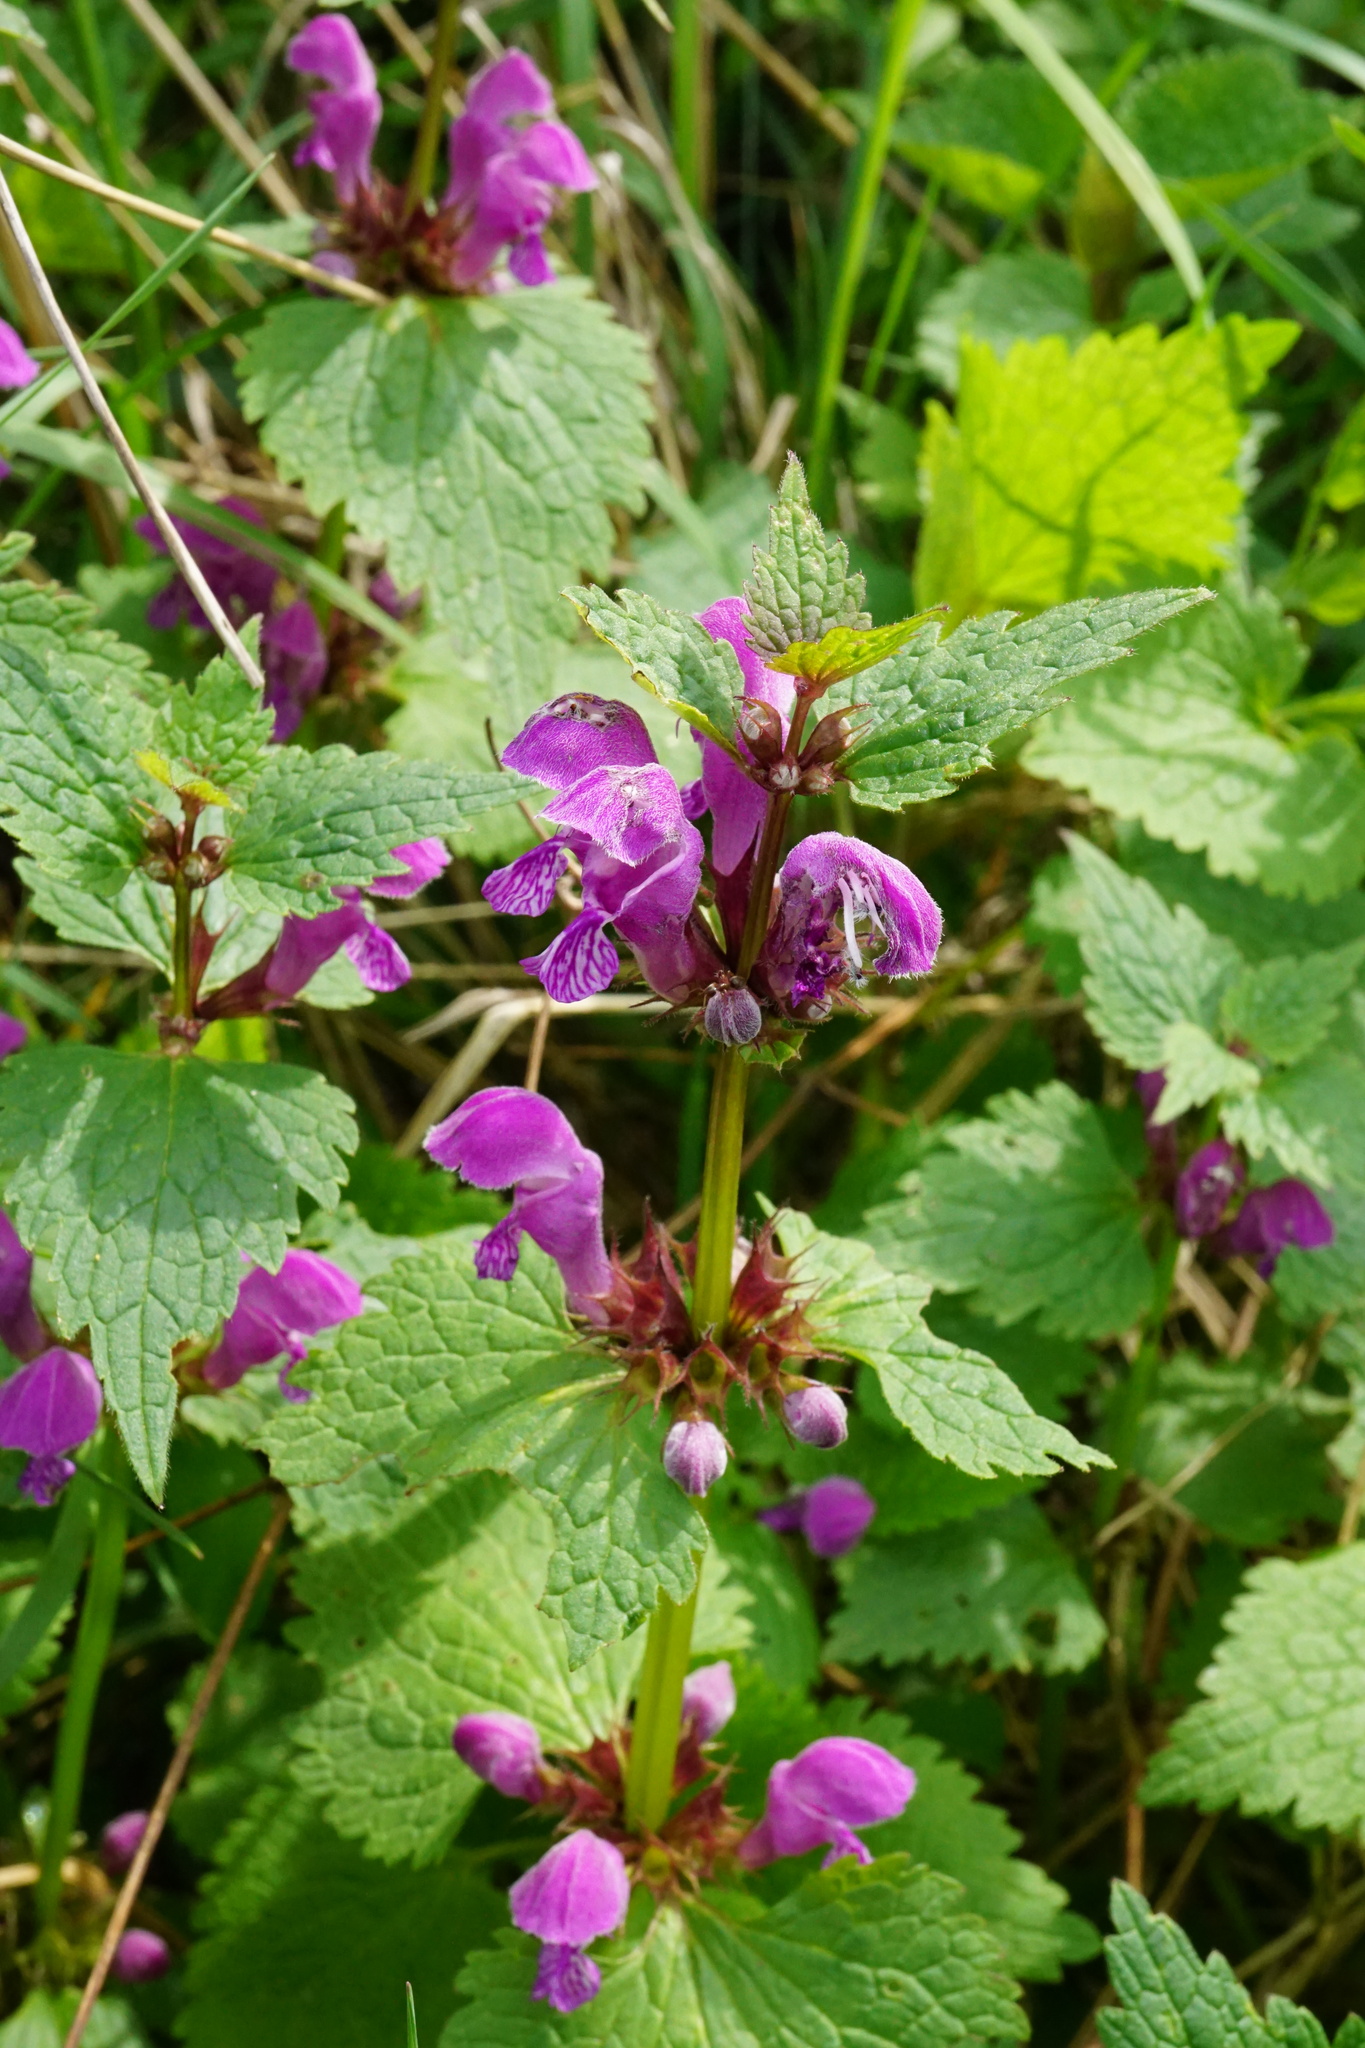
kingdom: Plantae
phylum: Tracheophyta
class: Magnoliopsida
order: Lamiales
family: Lamiaceae
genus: Lamium
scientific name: Lamium maculatum
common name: Spotted dead-nettle
